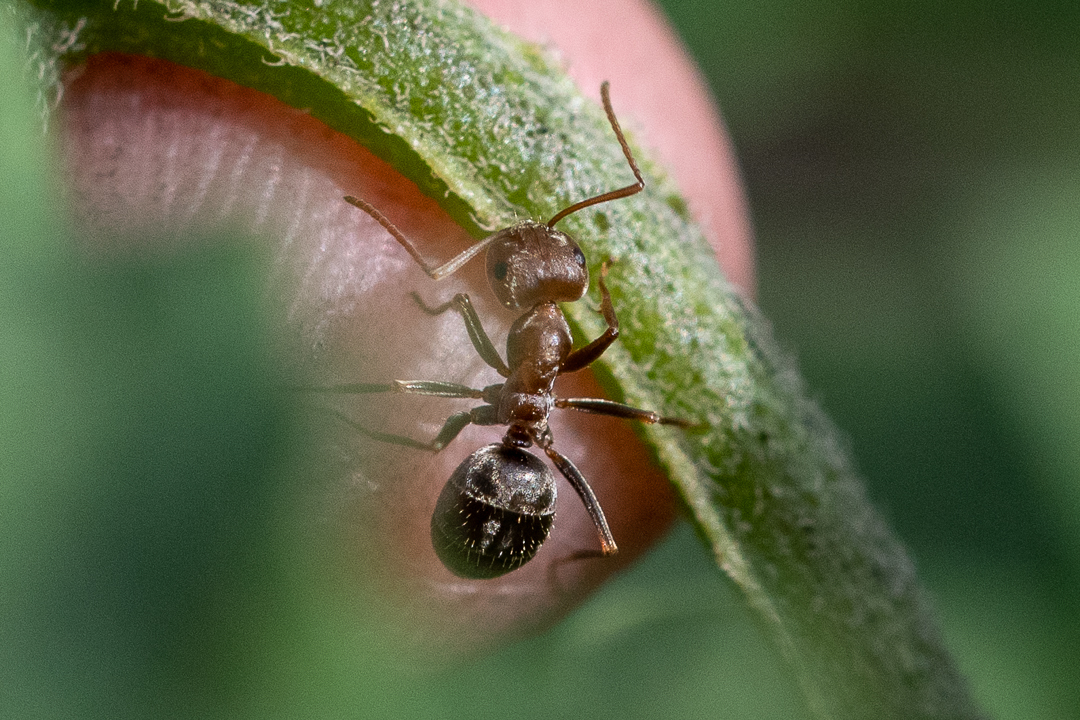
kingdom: Animalia
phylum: Arthropoda
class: Insecta
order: Hymenoptera
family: Formicidae
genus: Anoplolepis
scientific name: Anoplolepis steingroeveri
